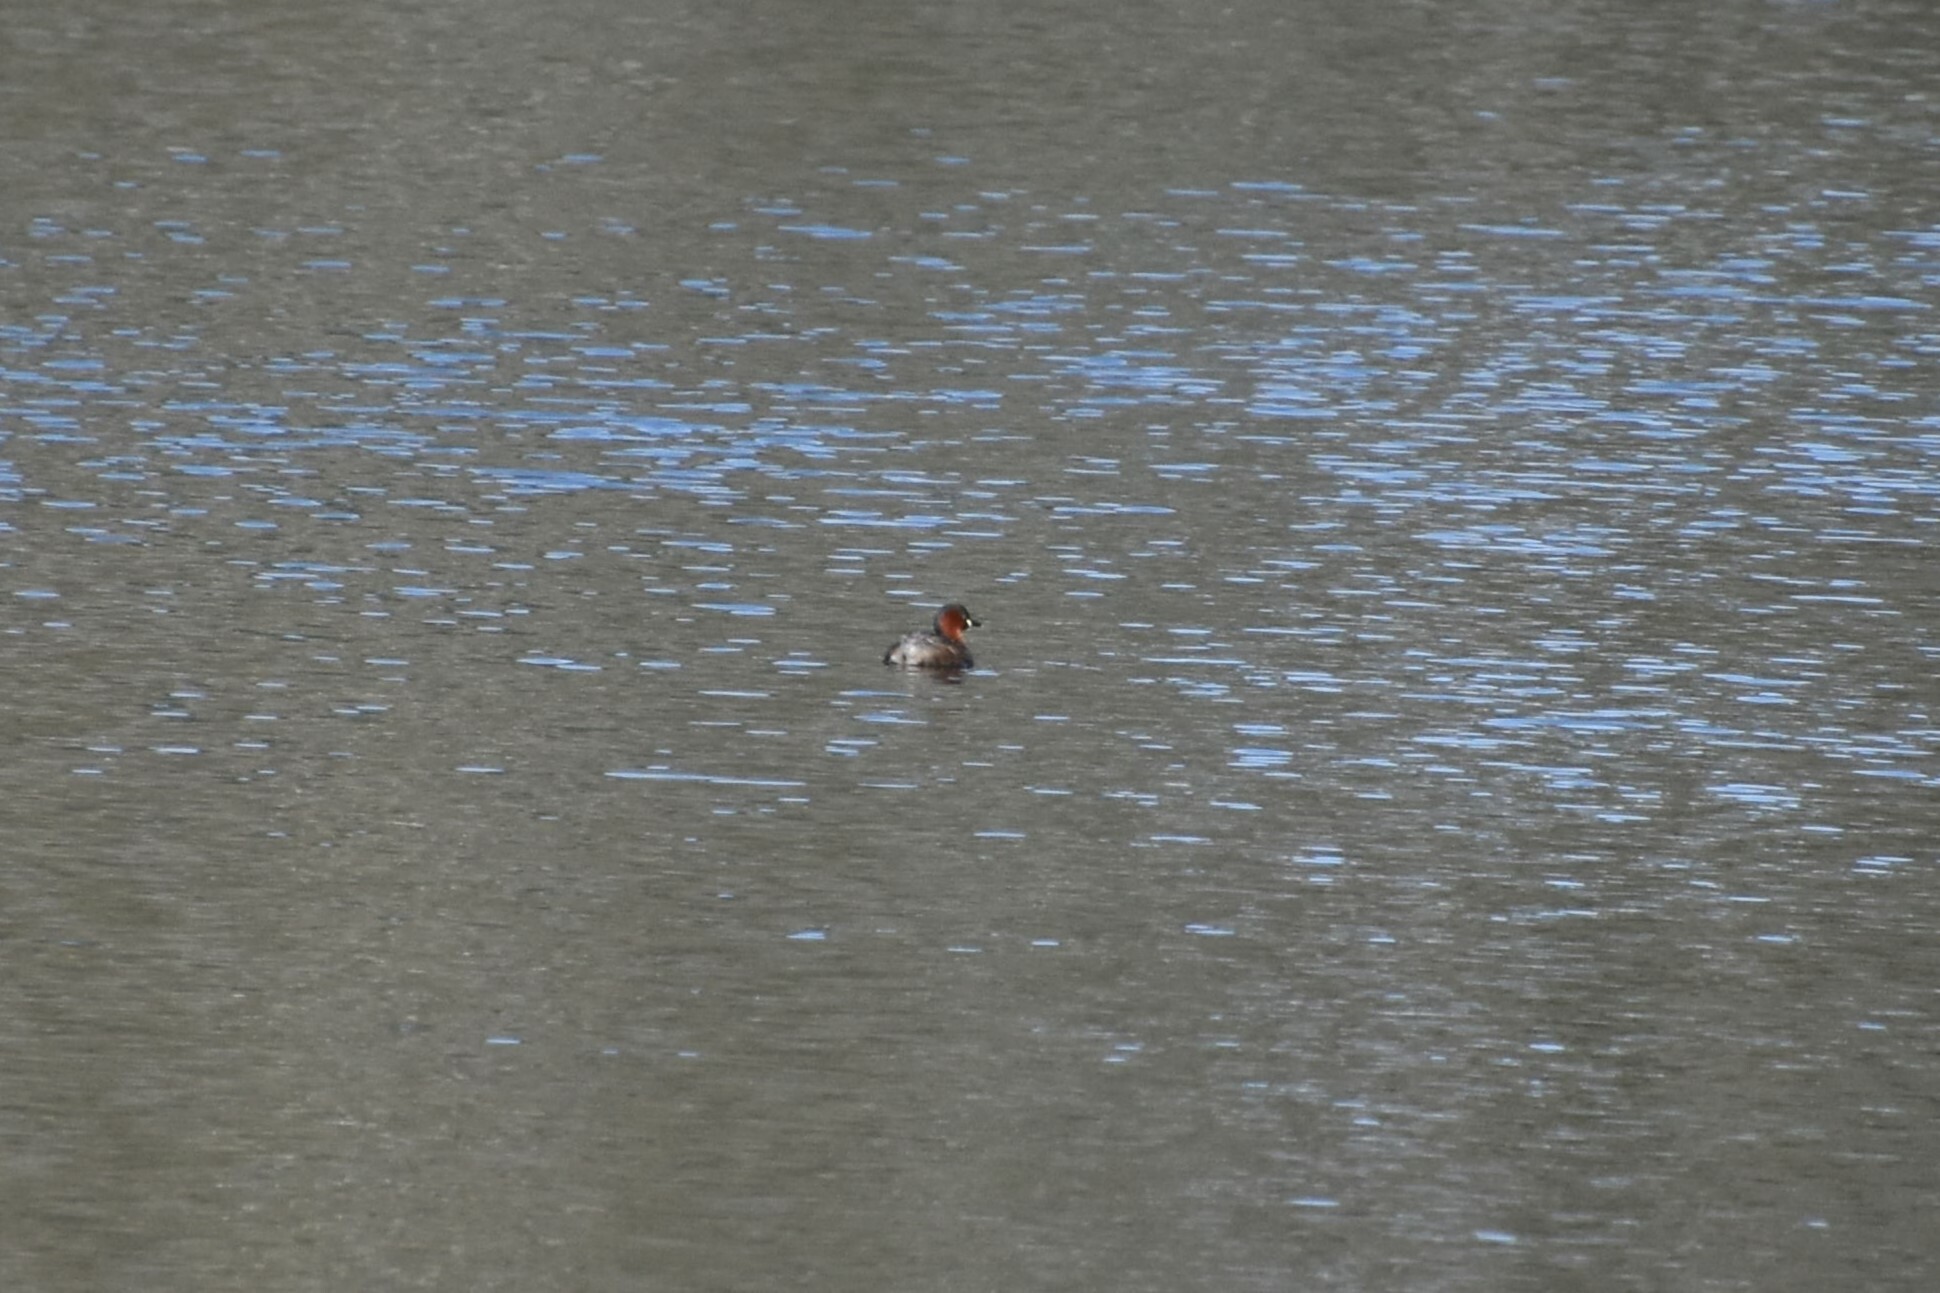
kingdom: Animalia
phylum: Chordata
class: Aves
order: Podicipediformes
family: Podicipedidae
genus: Tachybaptus
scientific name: Tachybaptus ruficollis
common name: Little grebe
